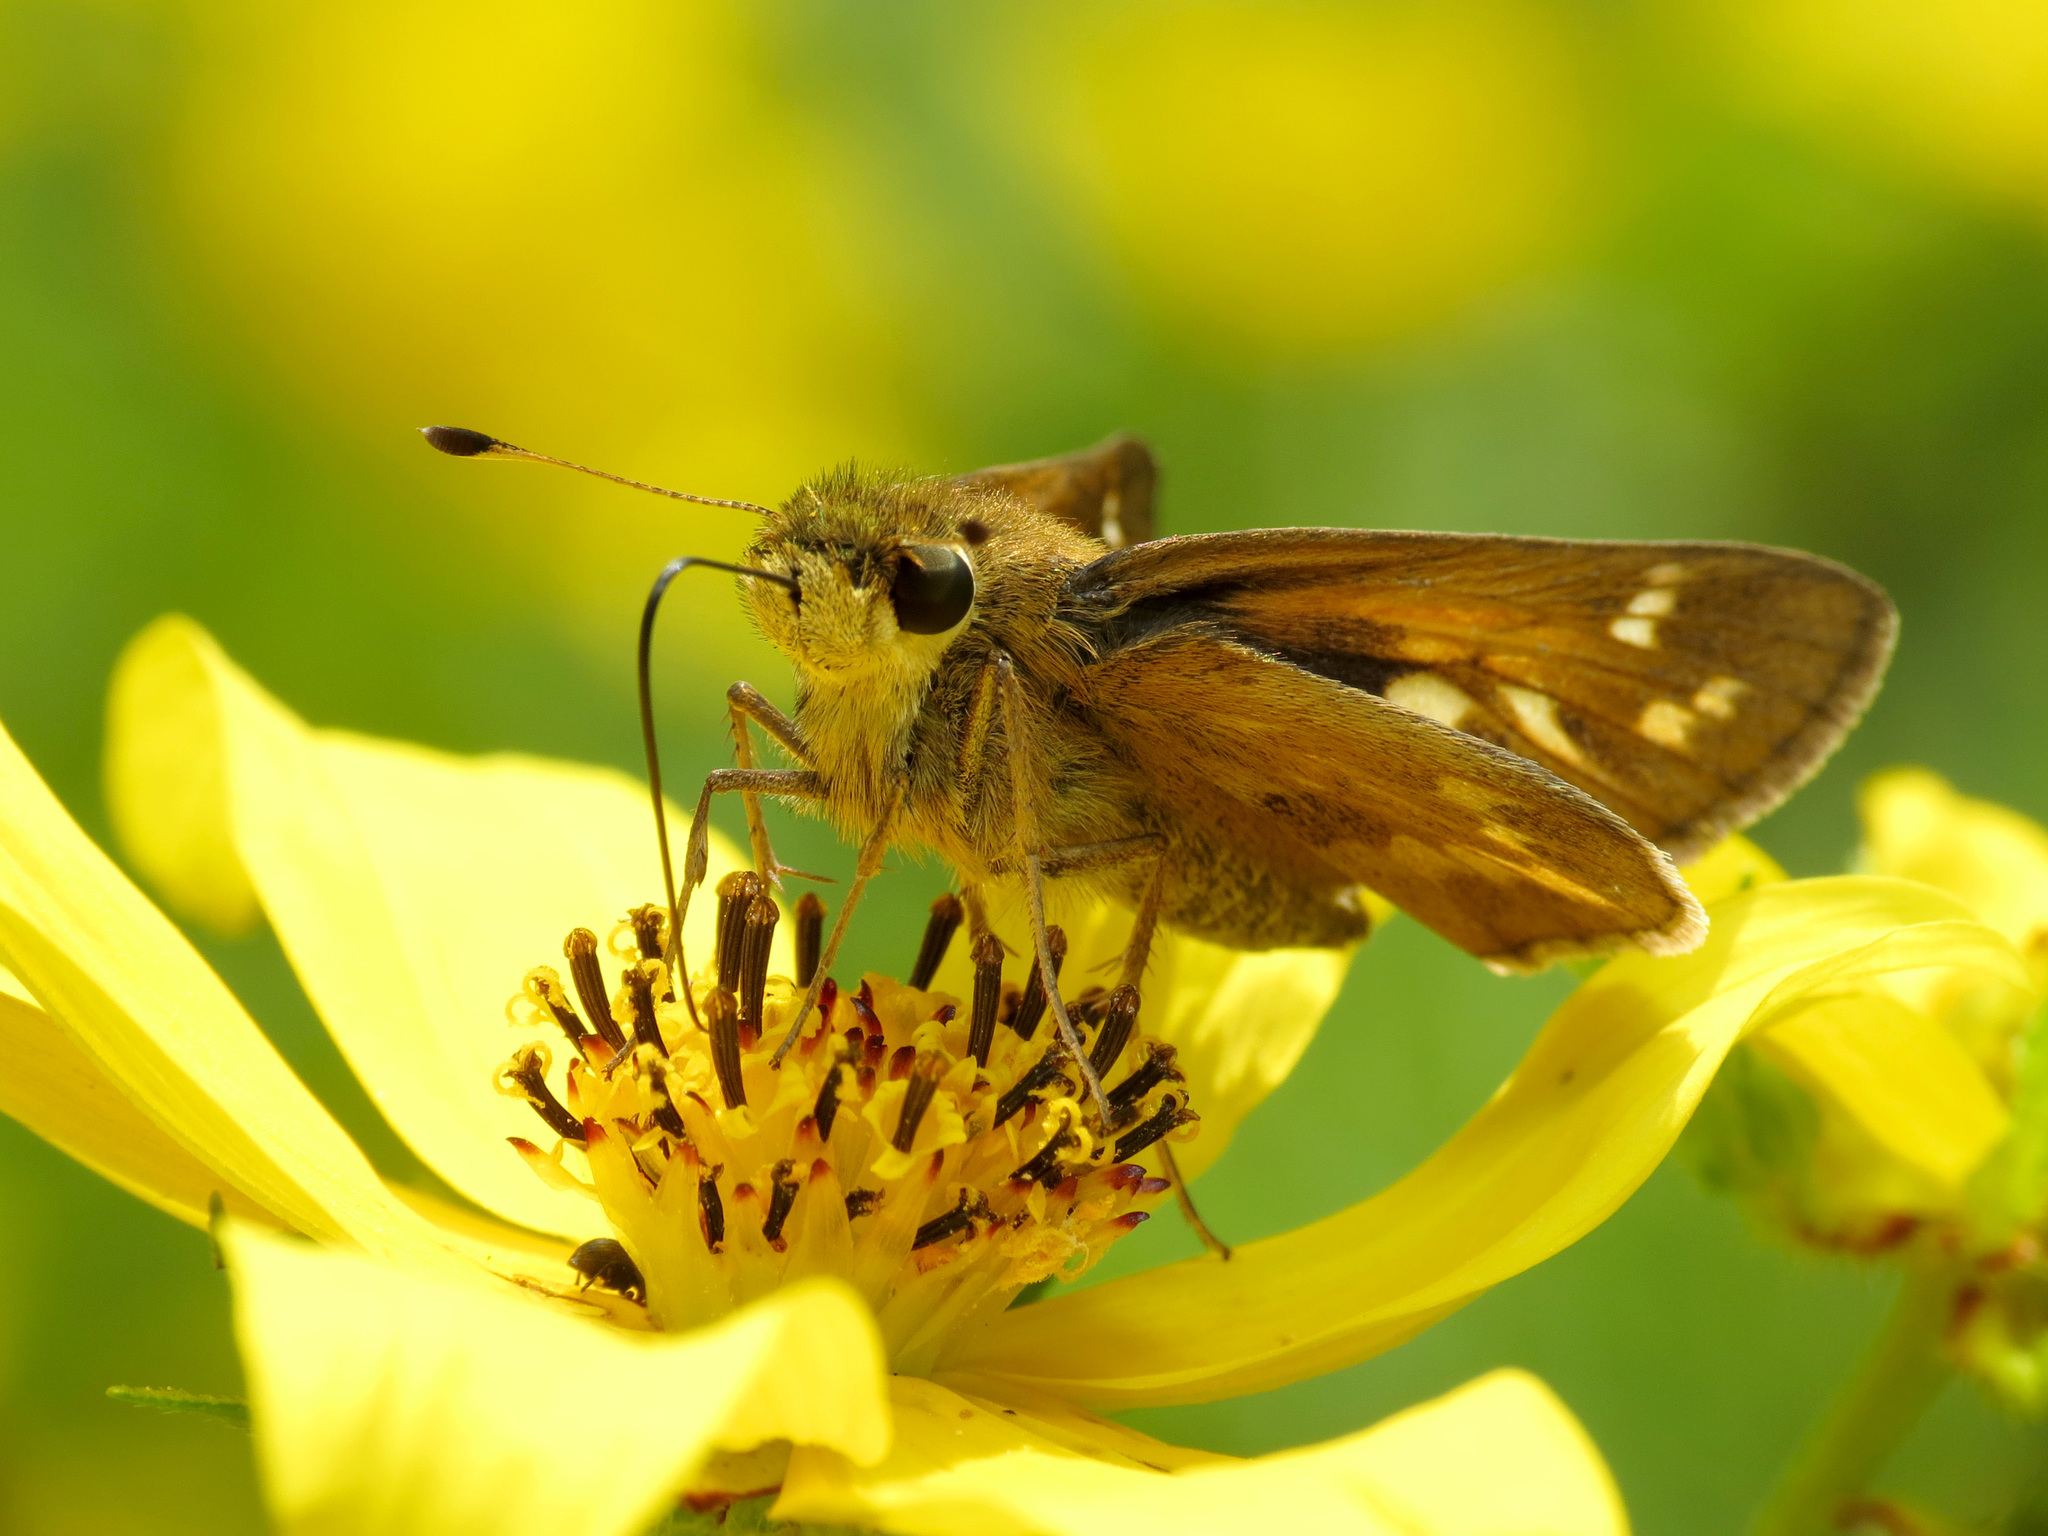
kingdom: Animalia
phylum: Arthropoda
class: Insecta
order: Lepidoptera
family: Hesperiidae
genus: Atalopedes
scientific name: Atalopedes
